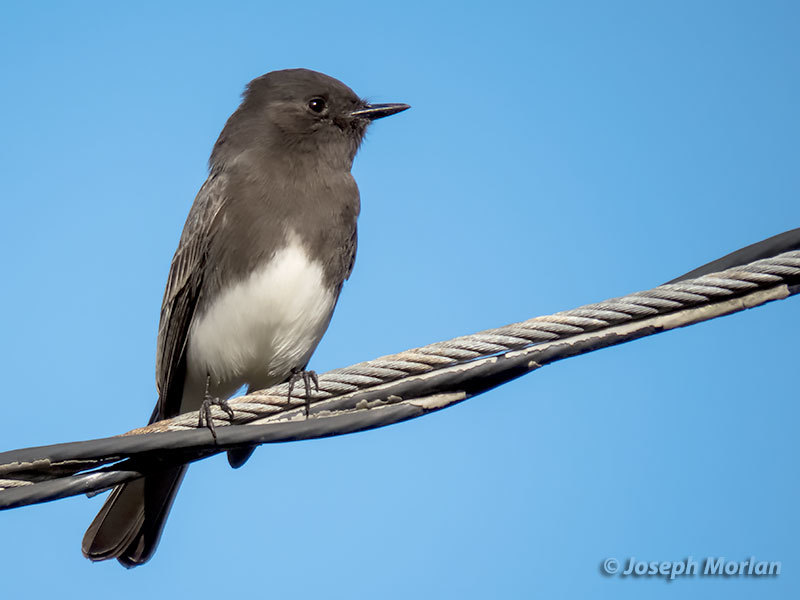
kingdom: Animalia
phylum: Chordata
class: Aves
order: Passeriformes
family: Tyrannidae
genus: Sayornis
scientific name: Sayornis nigricans
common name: Black phoebe
